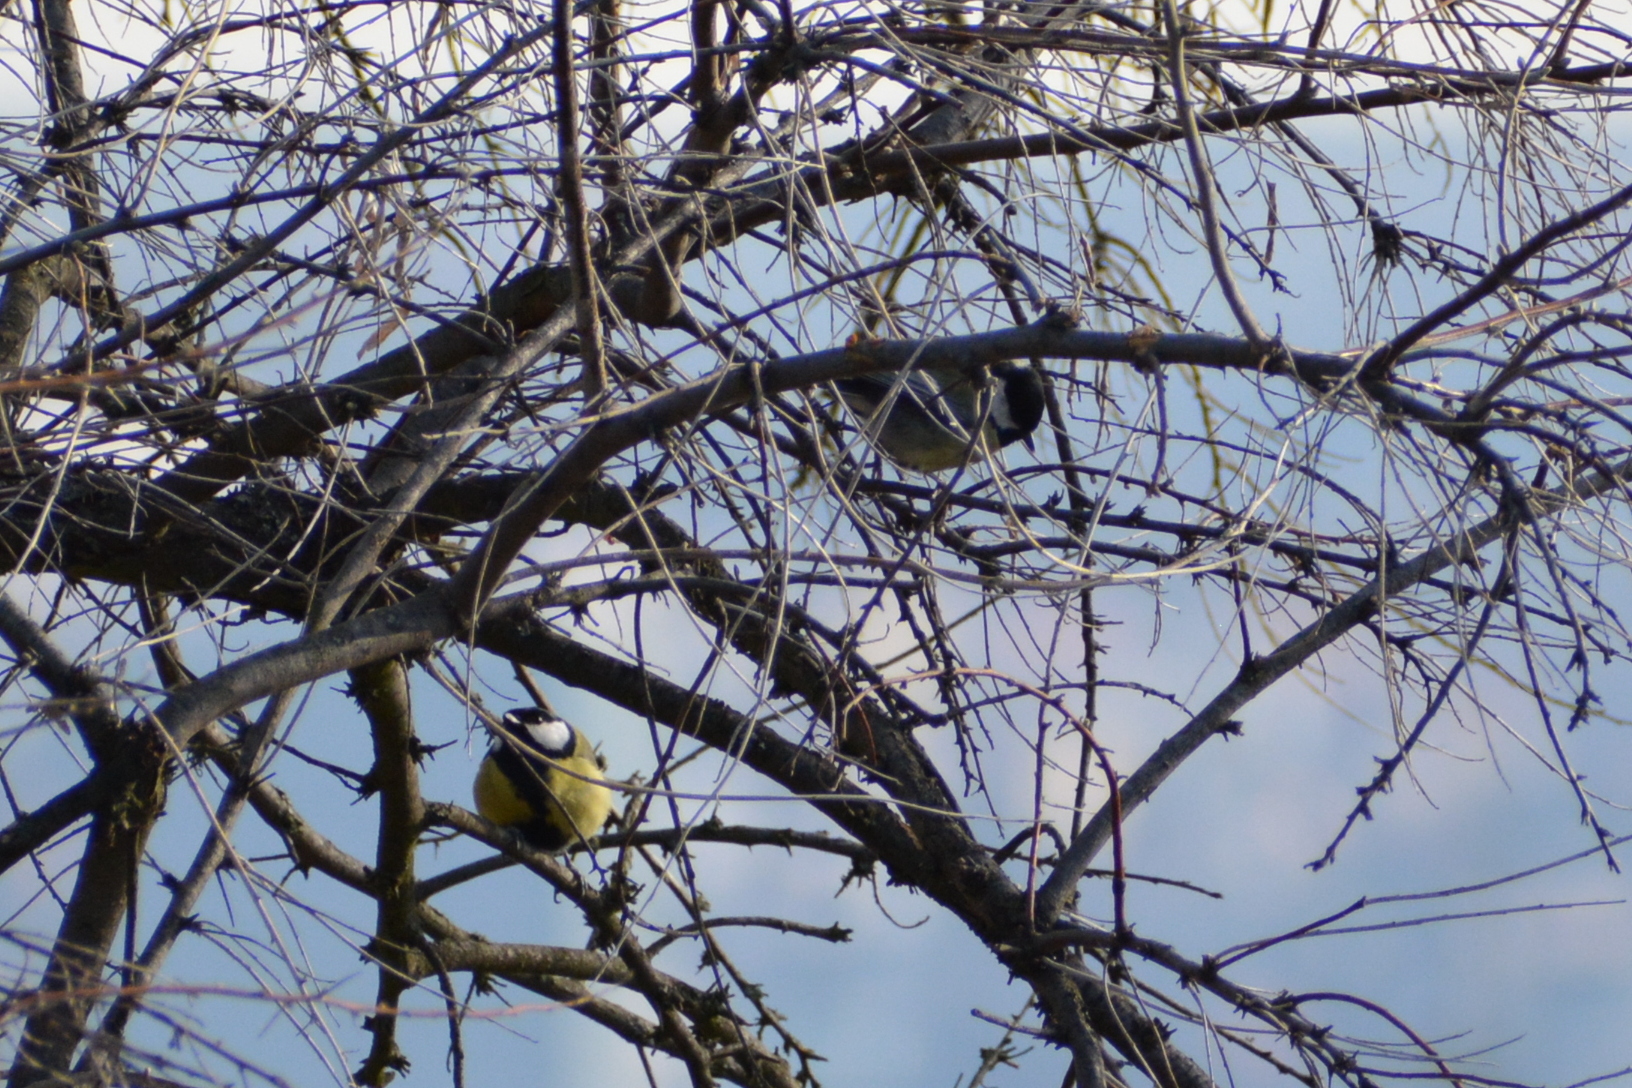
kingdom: Animalia
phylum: Chordata
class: Aves
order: Passeriformes
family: Paridae
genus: Parus
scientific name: Parus major
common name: Great tit
